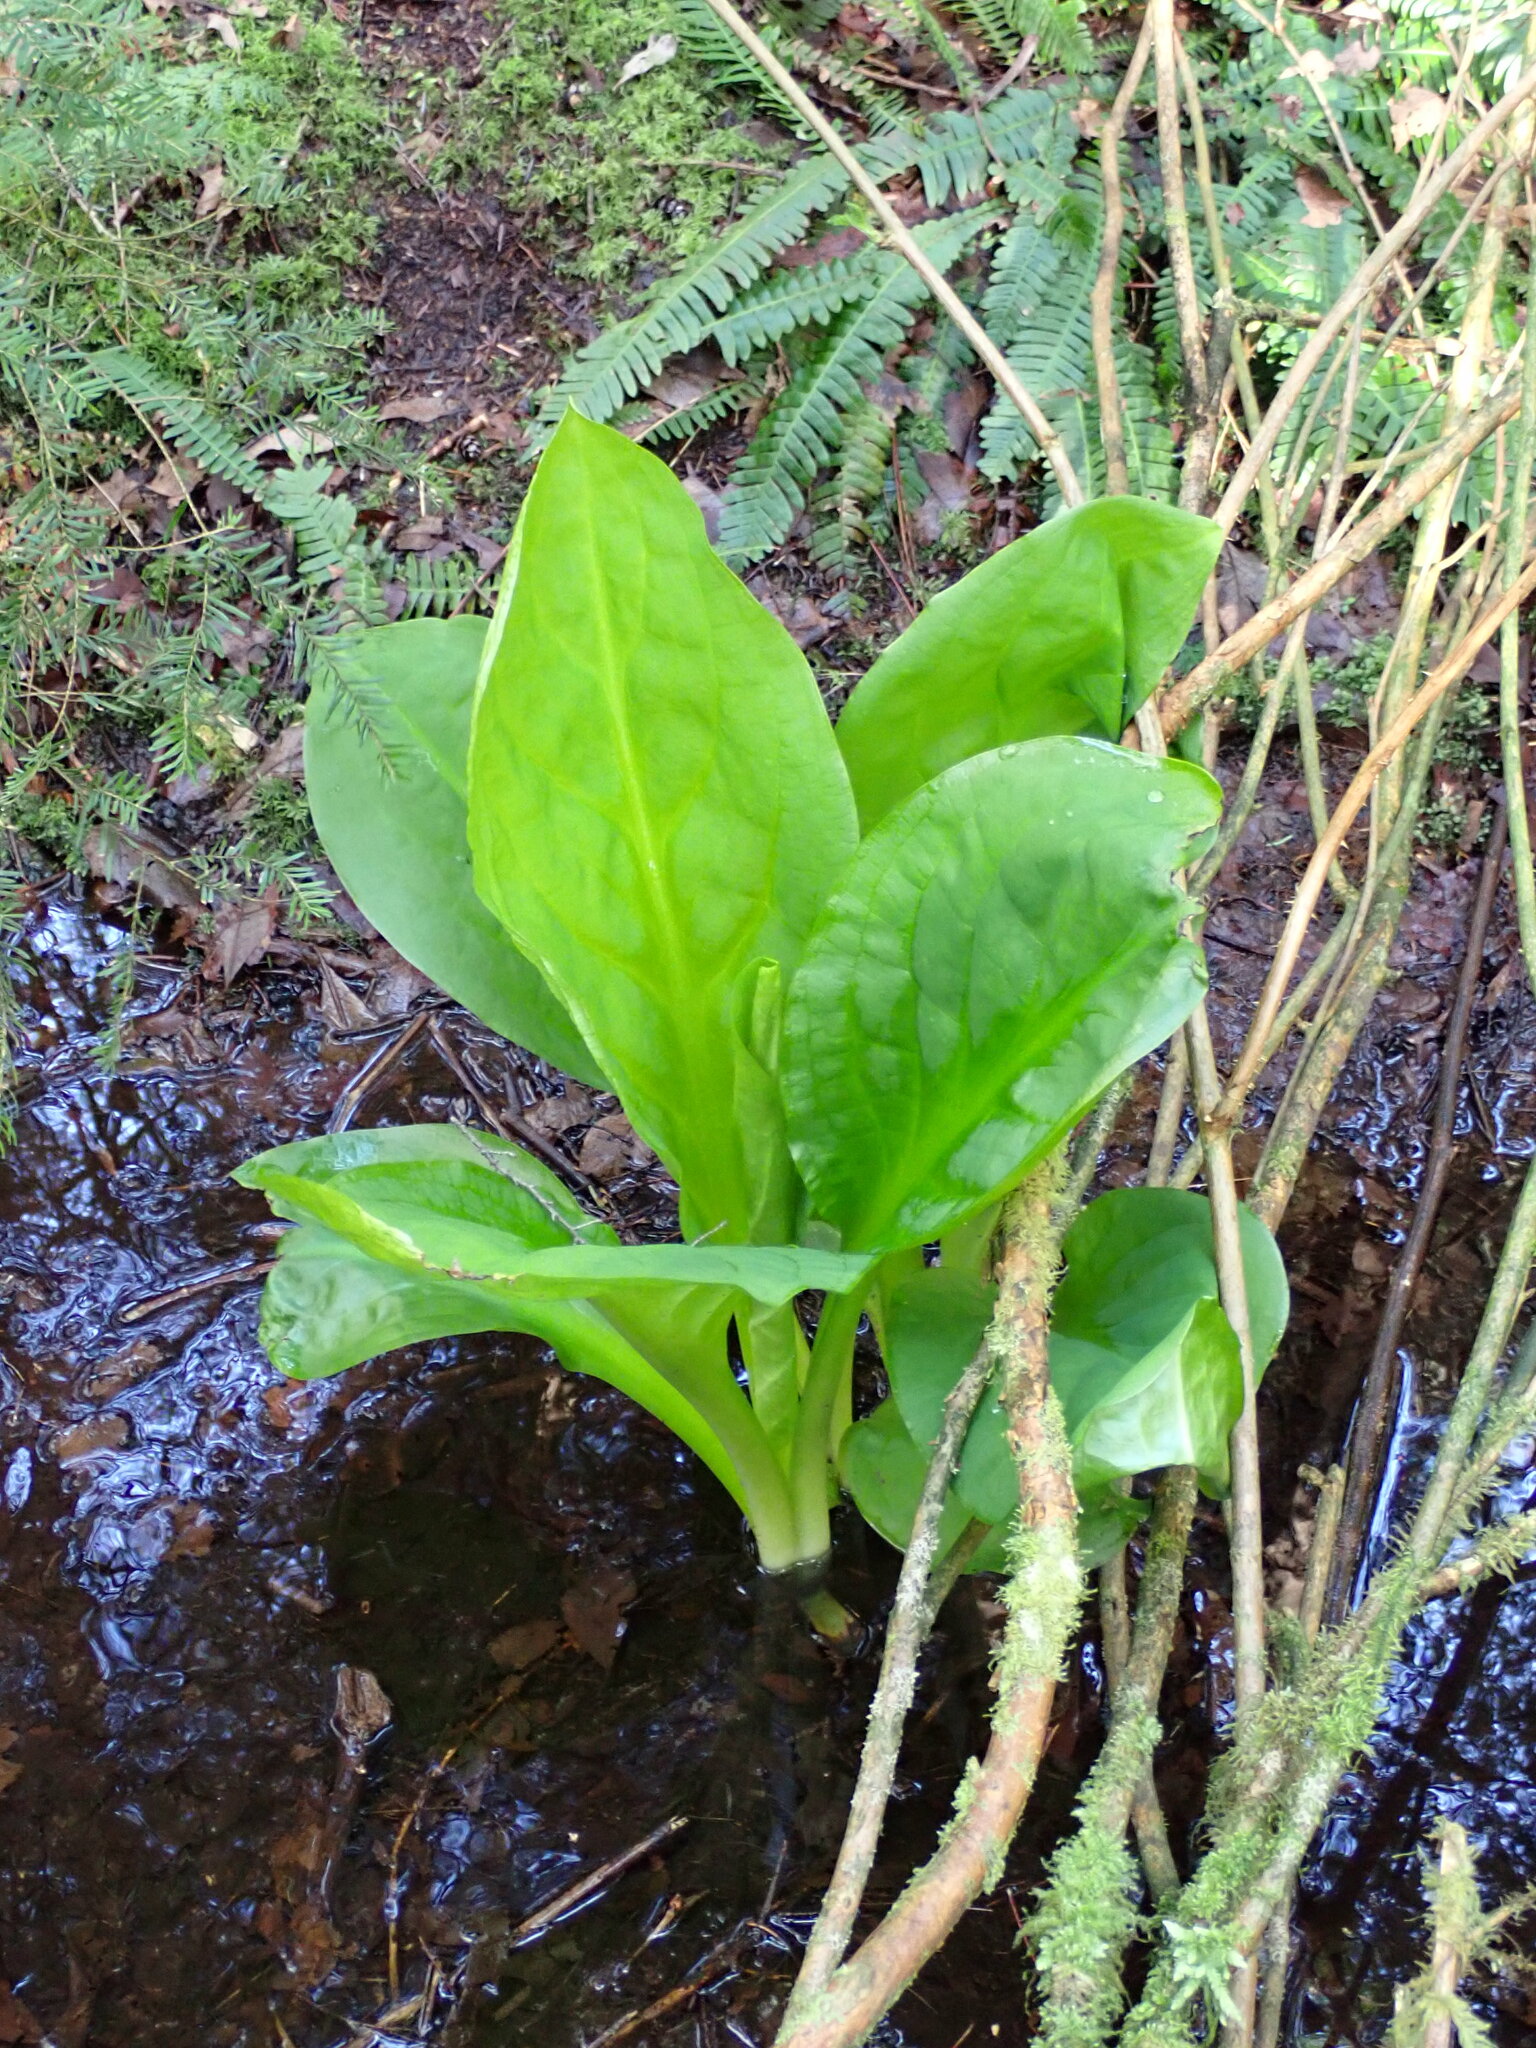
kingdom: Plantae
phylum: Tracheophyta
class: Liliopsida
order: Alismatales
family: Araceae
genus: Lysichiton
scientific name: Lysichiton americanus
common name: American skunk cabbage
